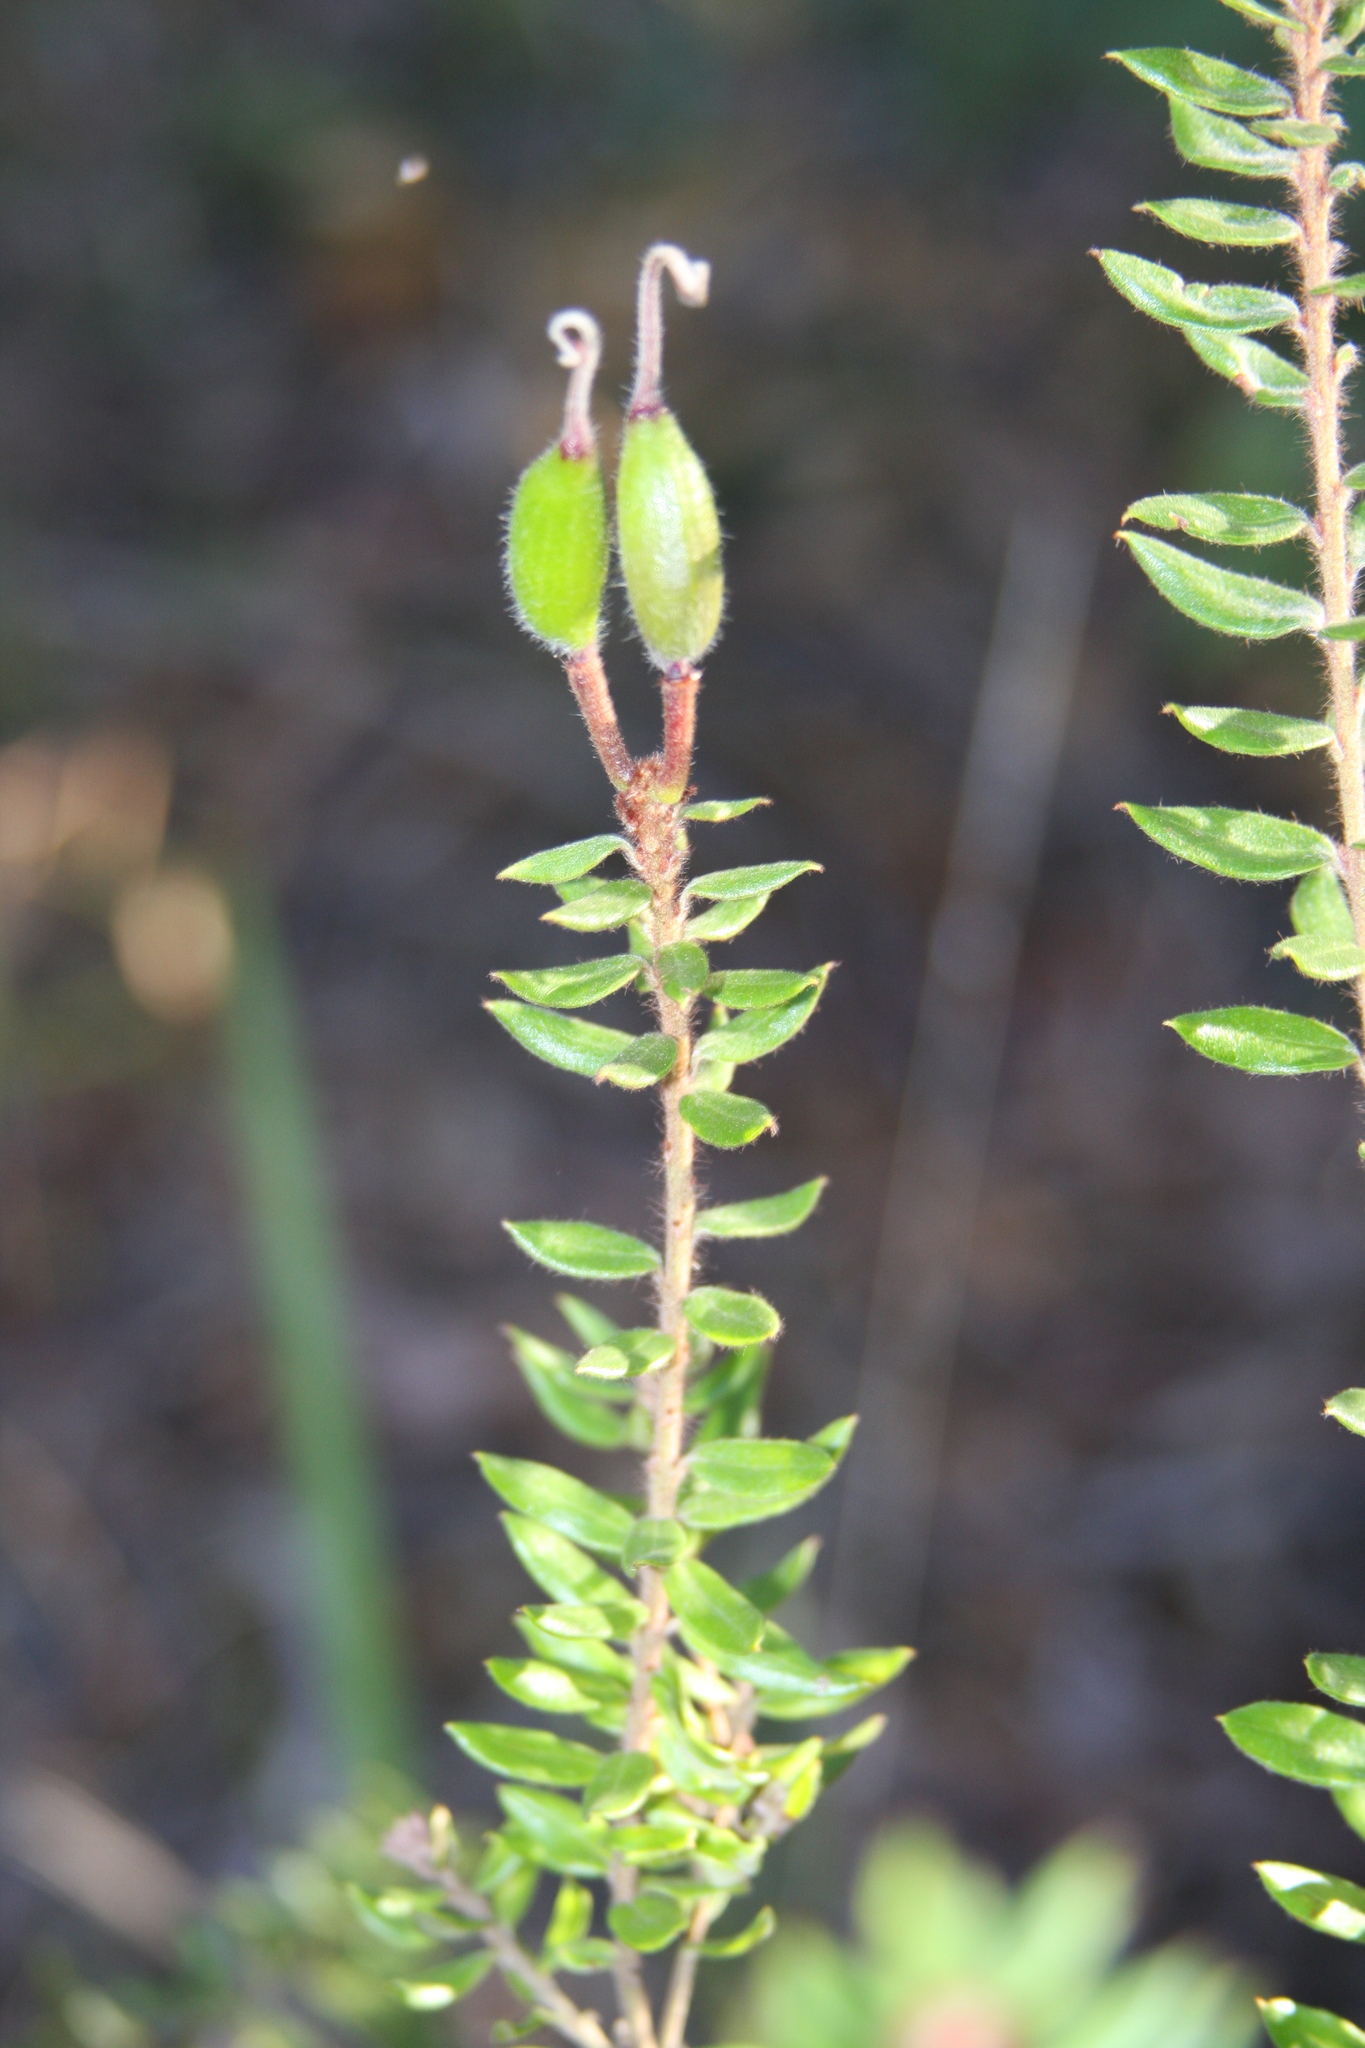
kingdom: Plantae
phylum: Tracheophyta
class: Magnoliopsida
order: Proteales
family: Proteaceae
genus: Grevillea
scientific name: Grevillea buxifolia
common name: Grey spiderflower
